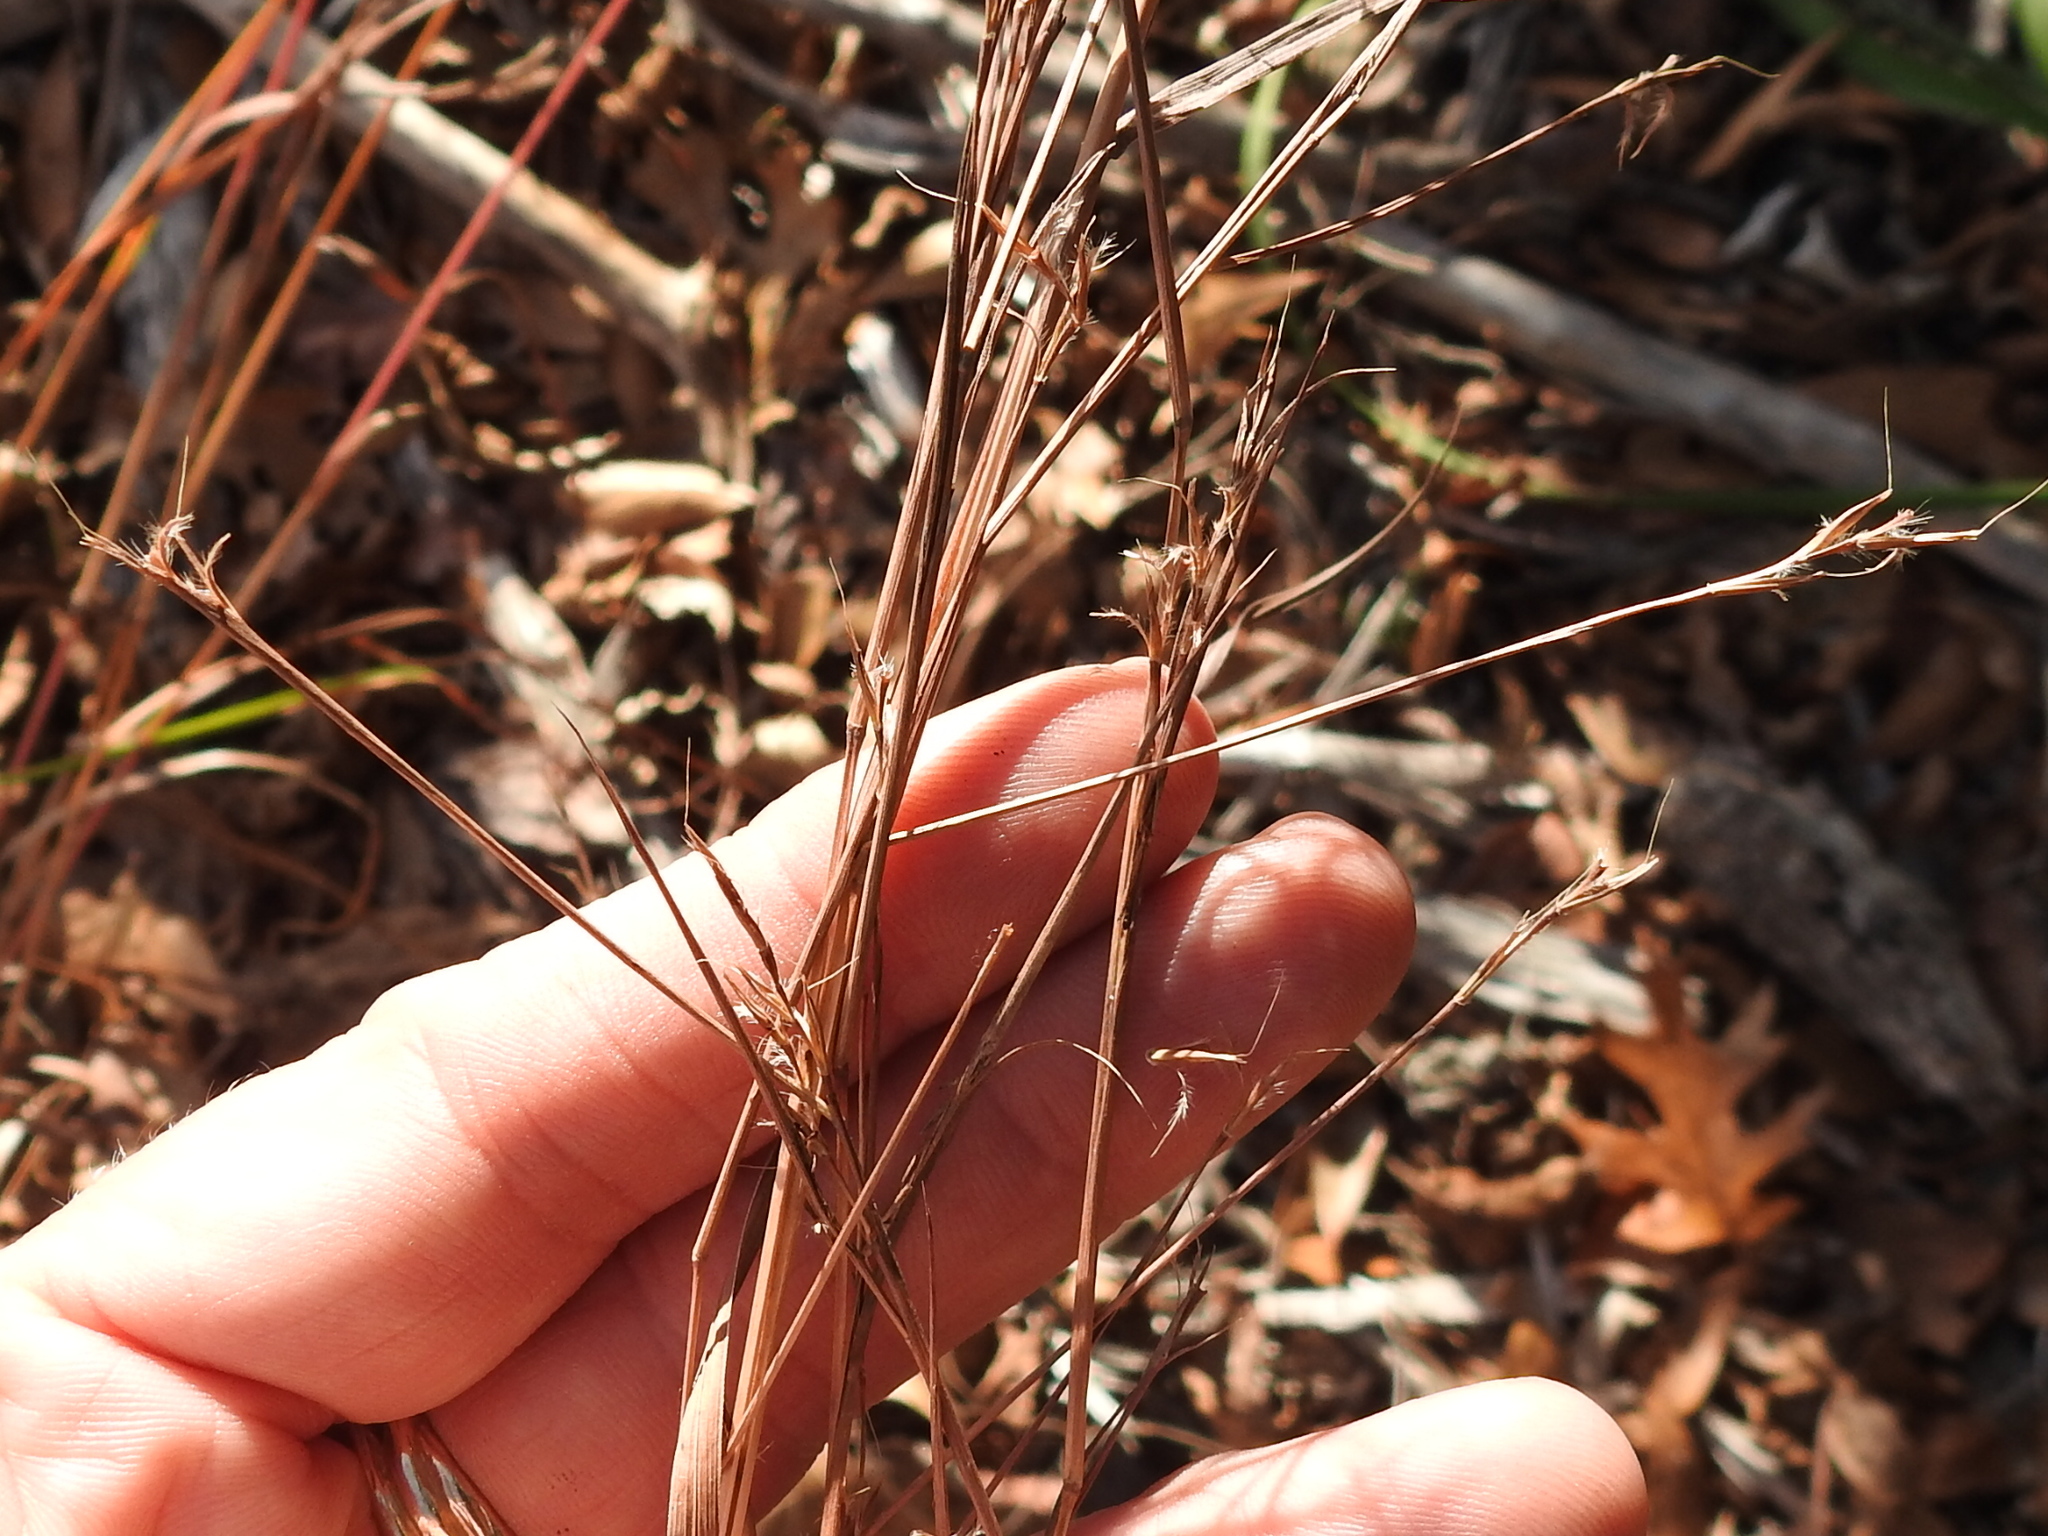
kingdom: Plantae
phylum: Tracheophyta
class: Liliopsida
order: Poales
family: Poaceae
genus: Schizachyrium
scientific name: Schizachyrium scoparium
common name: Little bluestem
